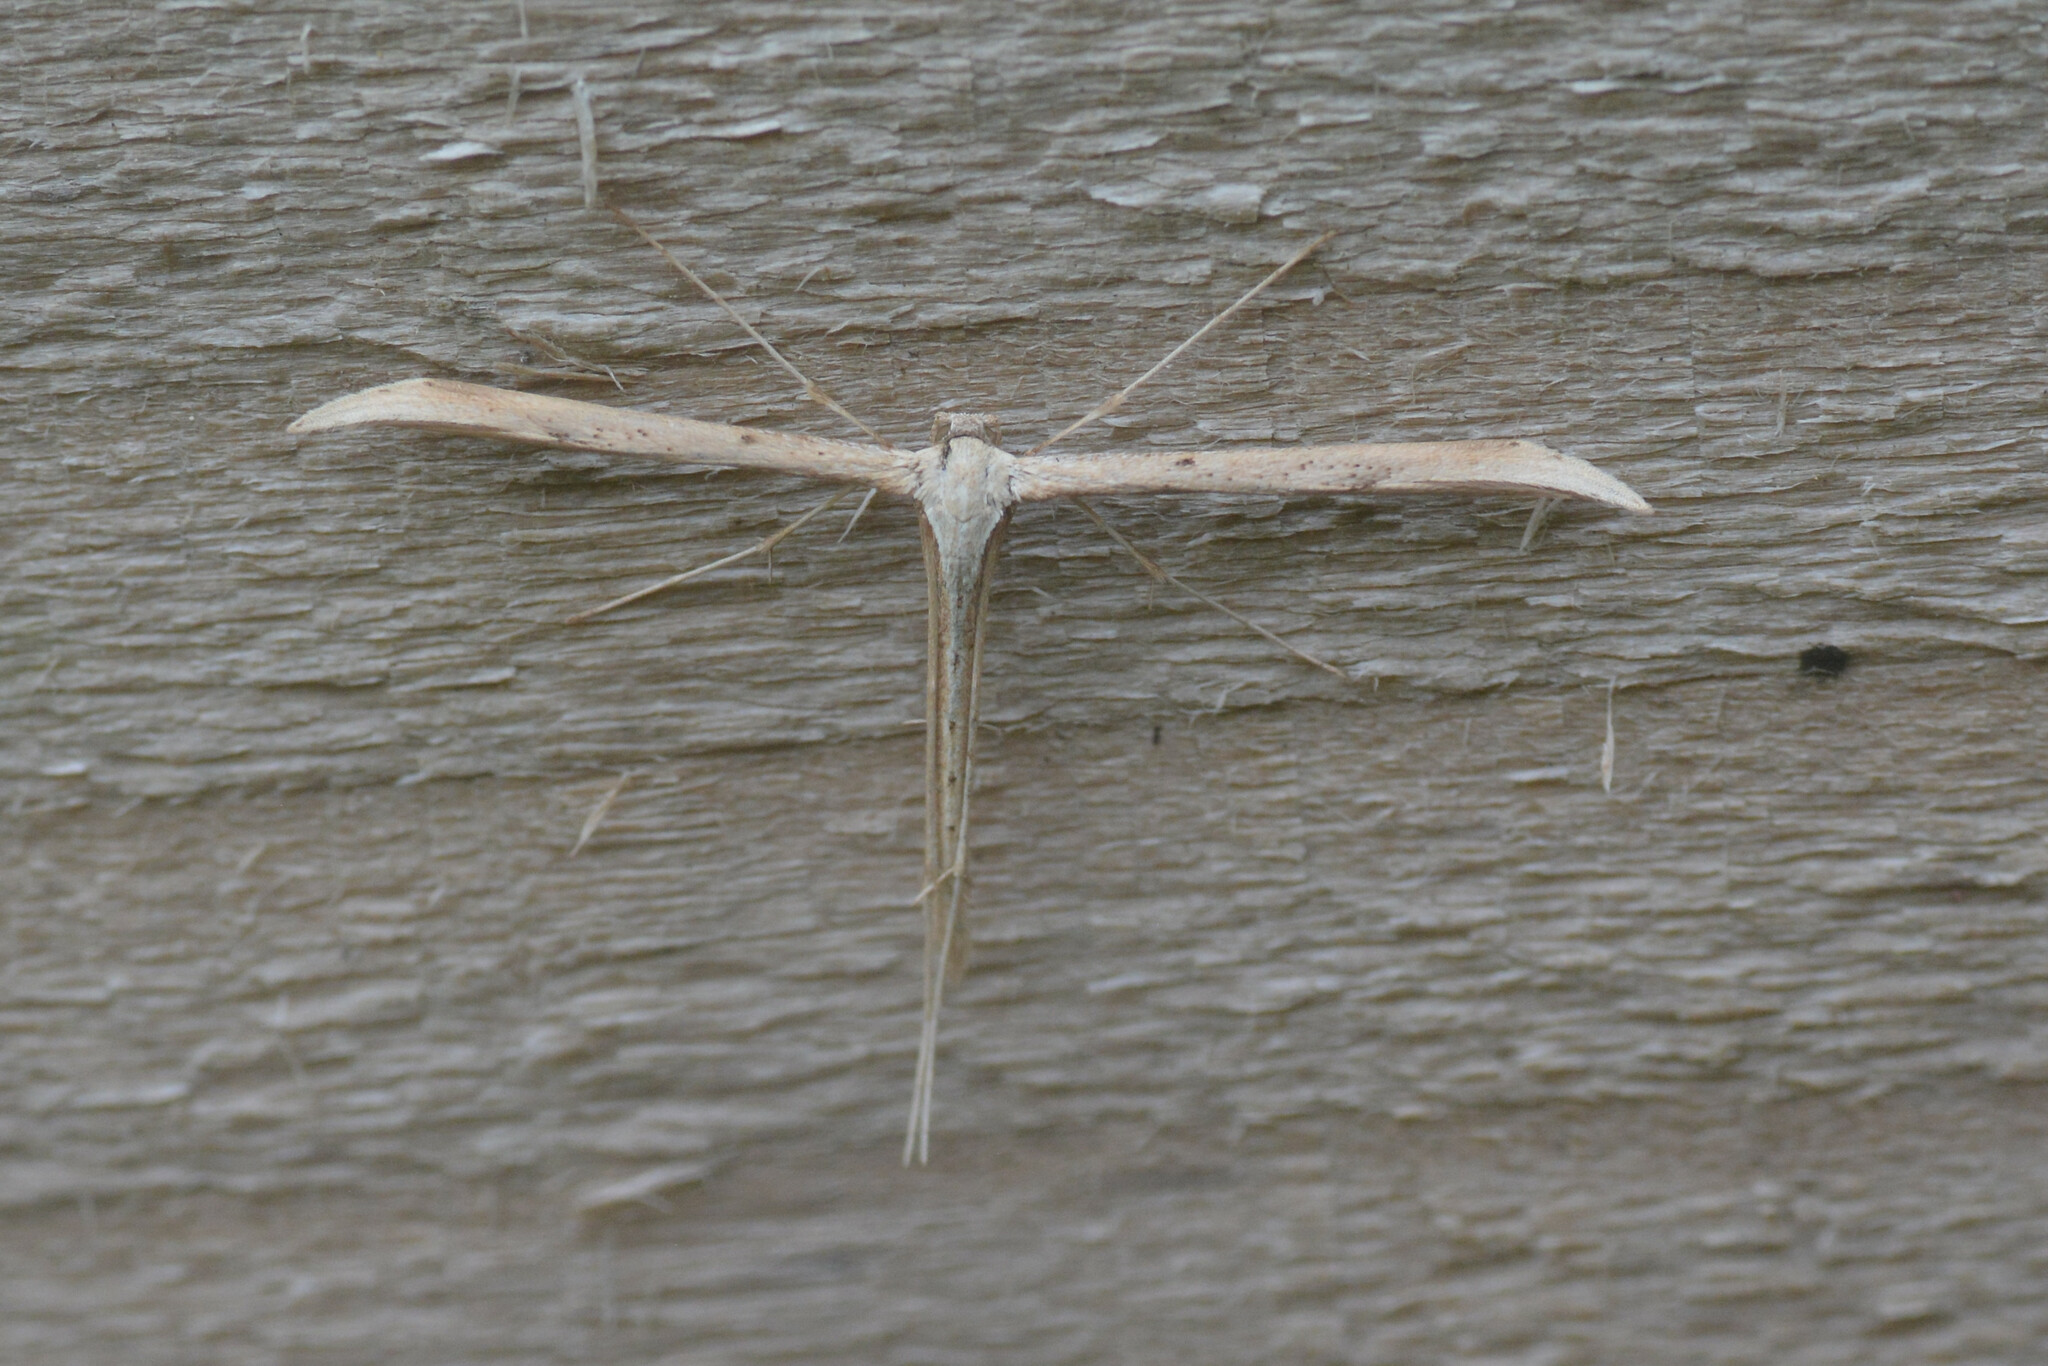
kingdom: Animalia
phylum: Arthropoda
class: Insecta
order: Lepidoptera
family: Pterophoridae
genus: Emmelina
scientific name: Emmelina monodactyla
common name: Common plume
